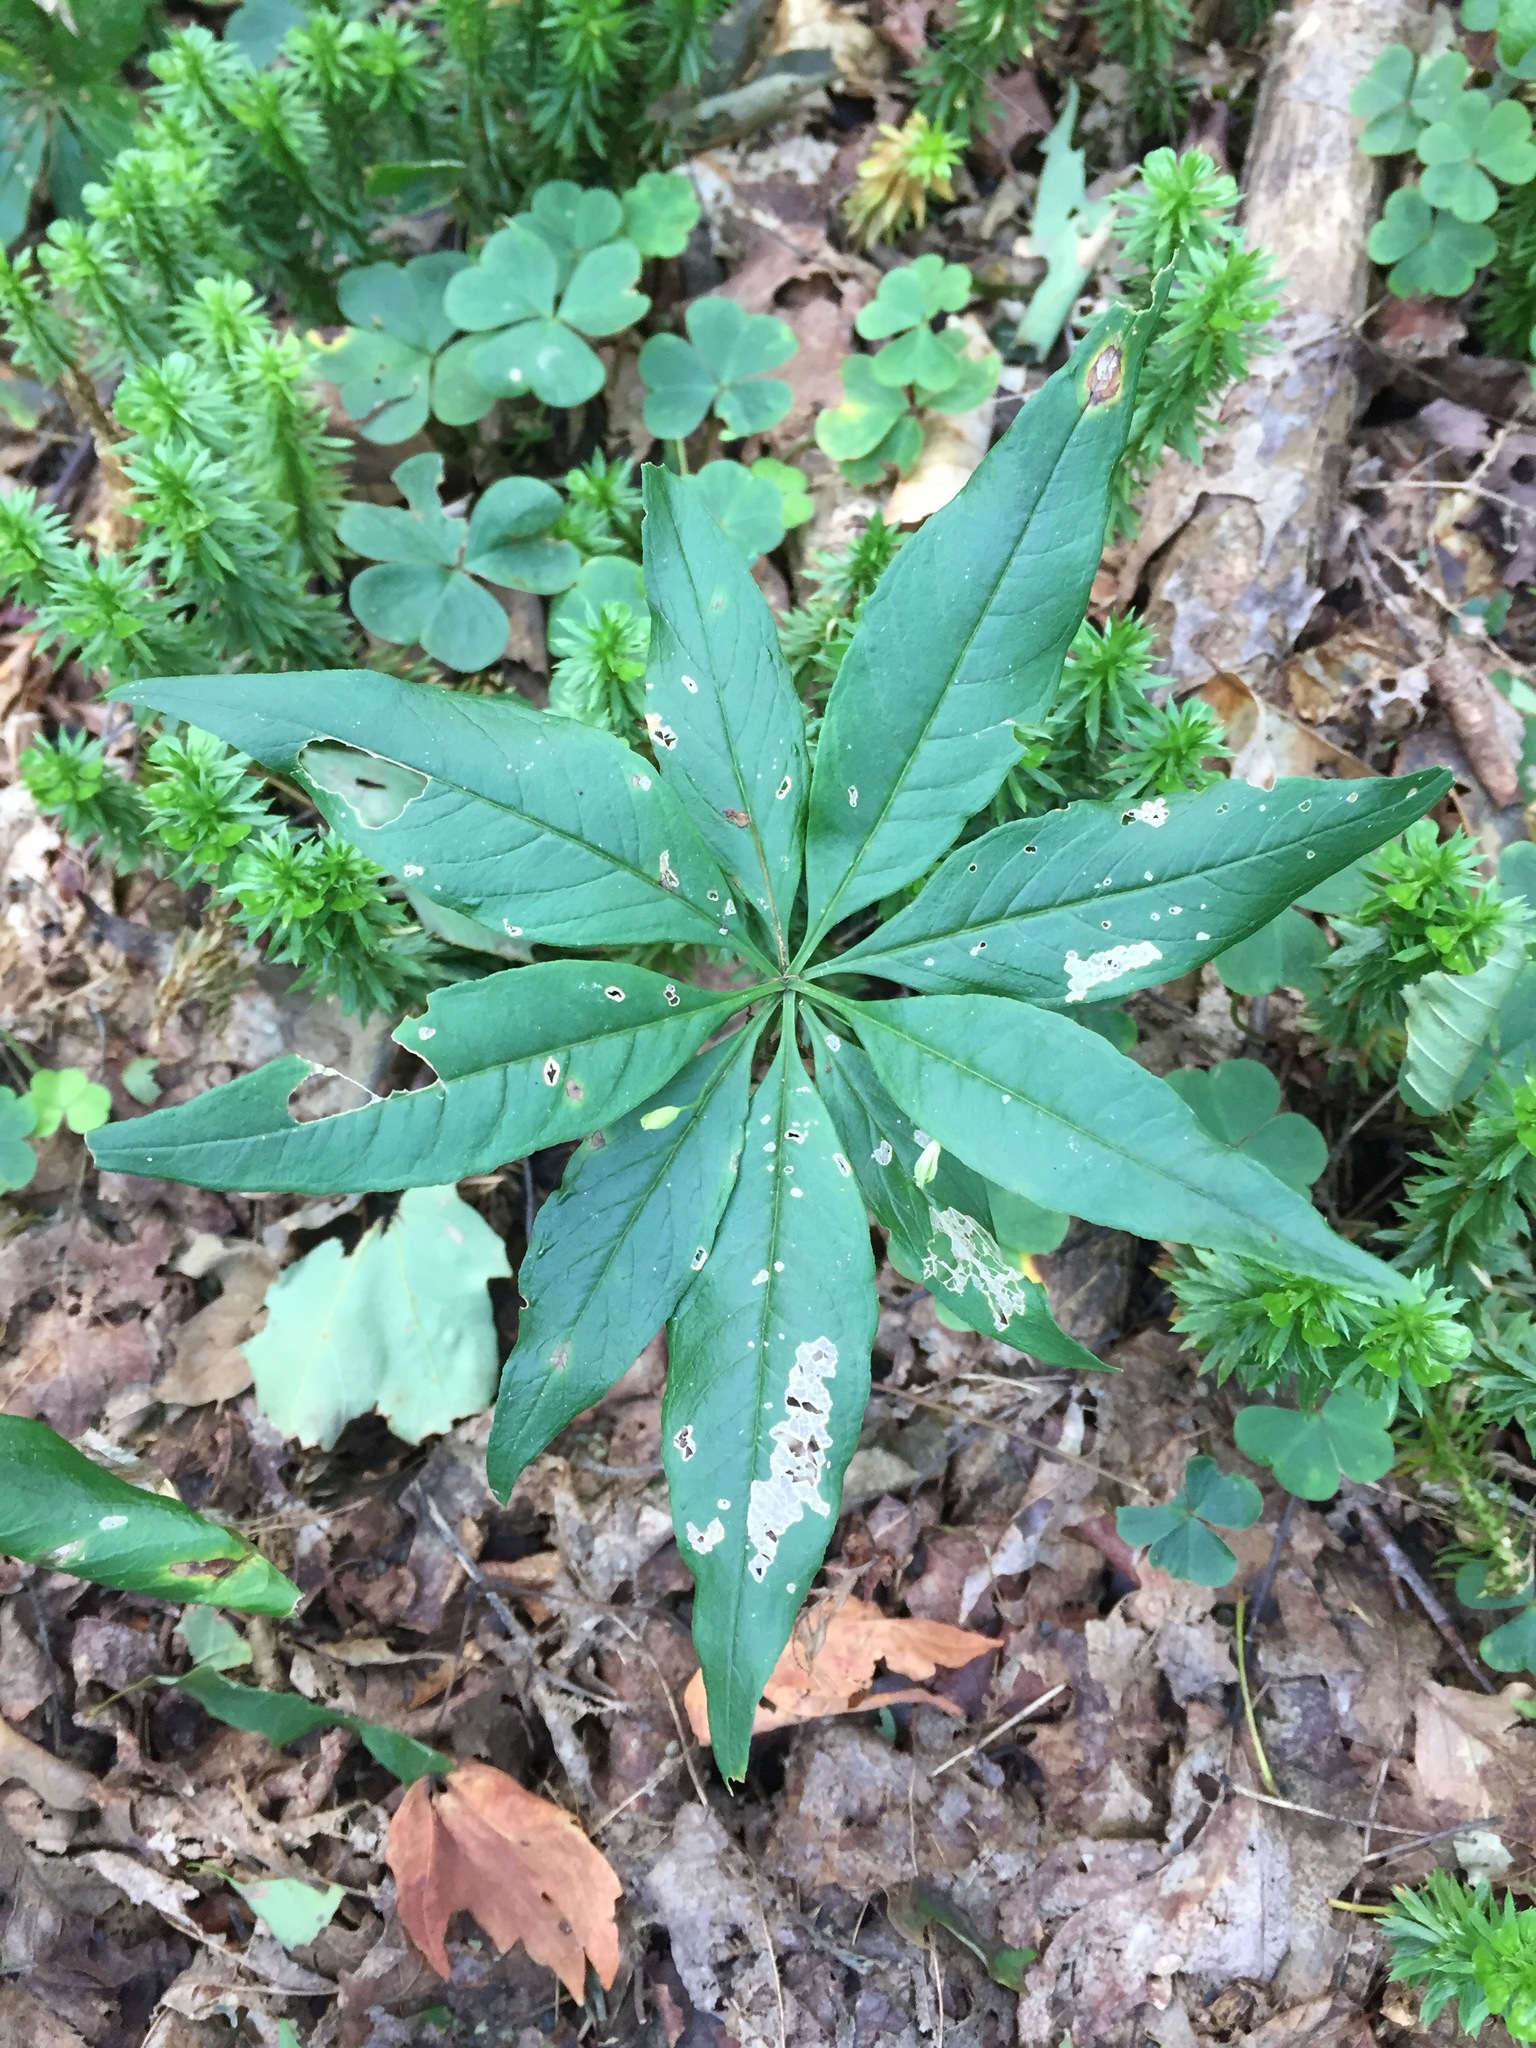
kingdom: Plantae
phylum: Tracheophyta
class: Magnoliopsida
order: Ericales
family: Primulaceae
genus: Lysimachia
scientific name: Lysimachia borealis
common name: American starflower
